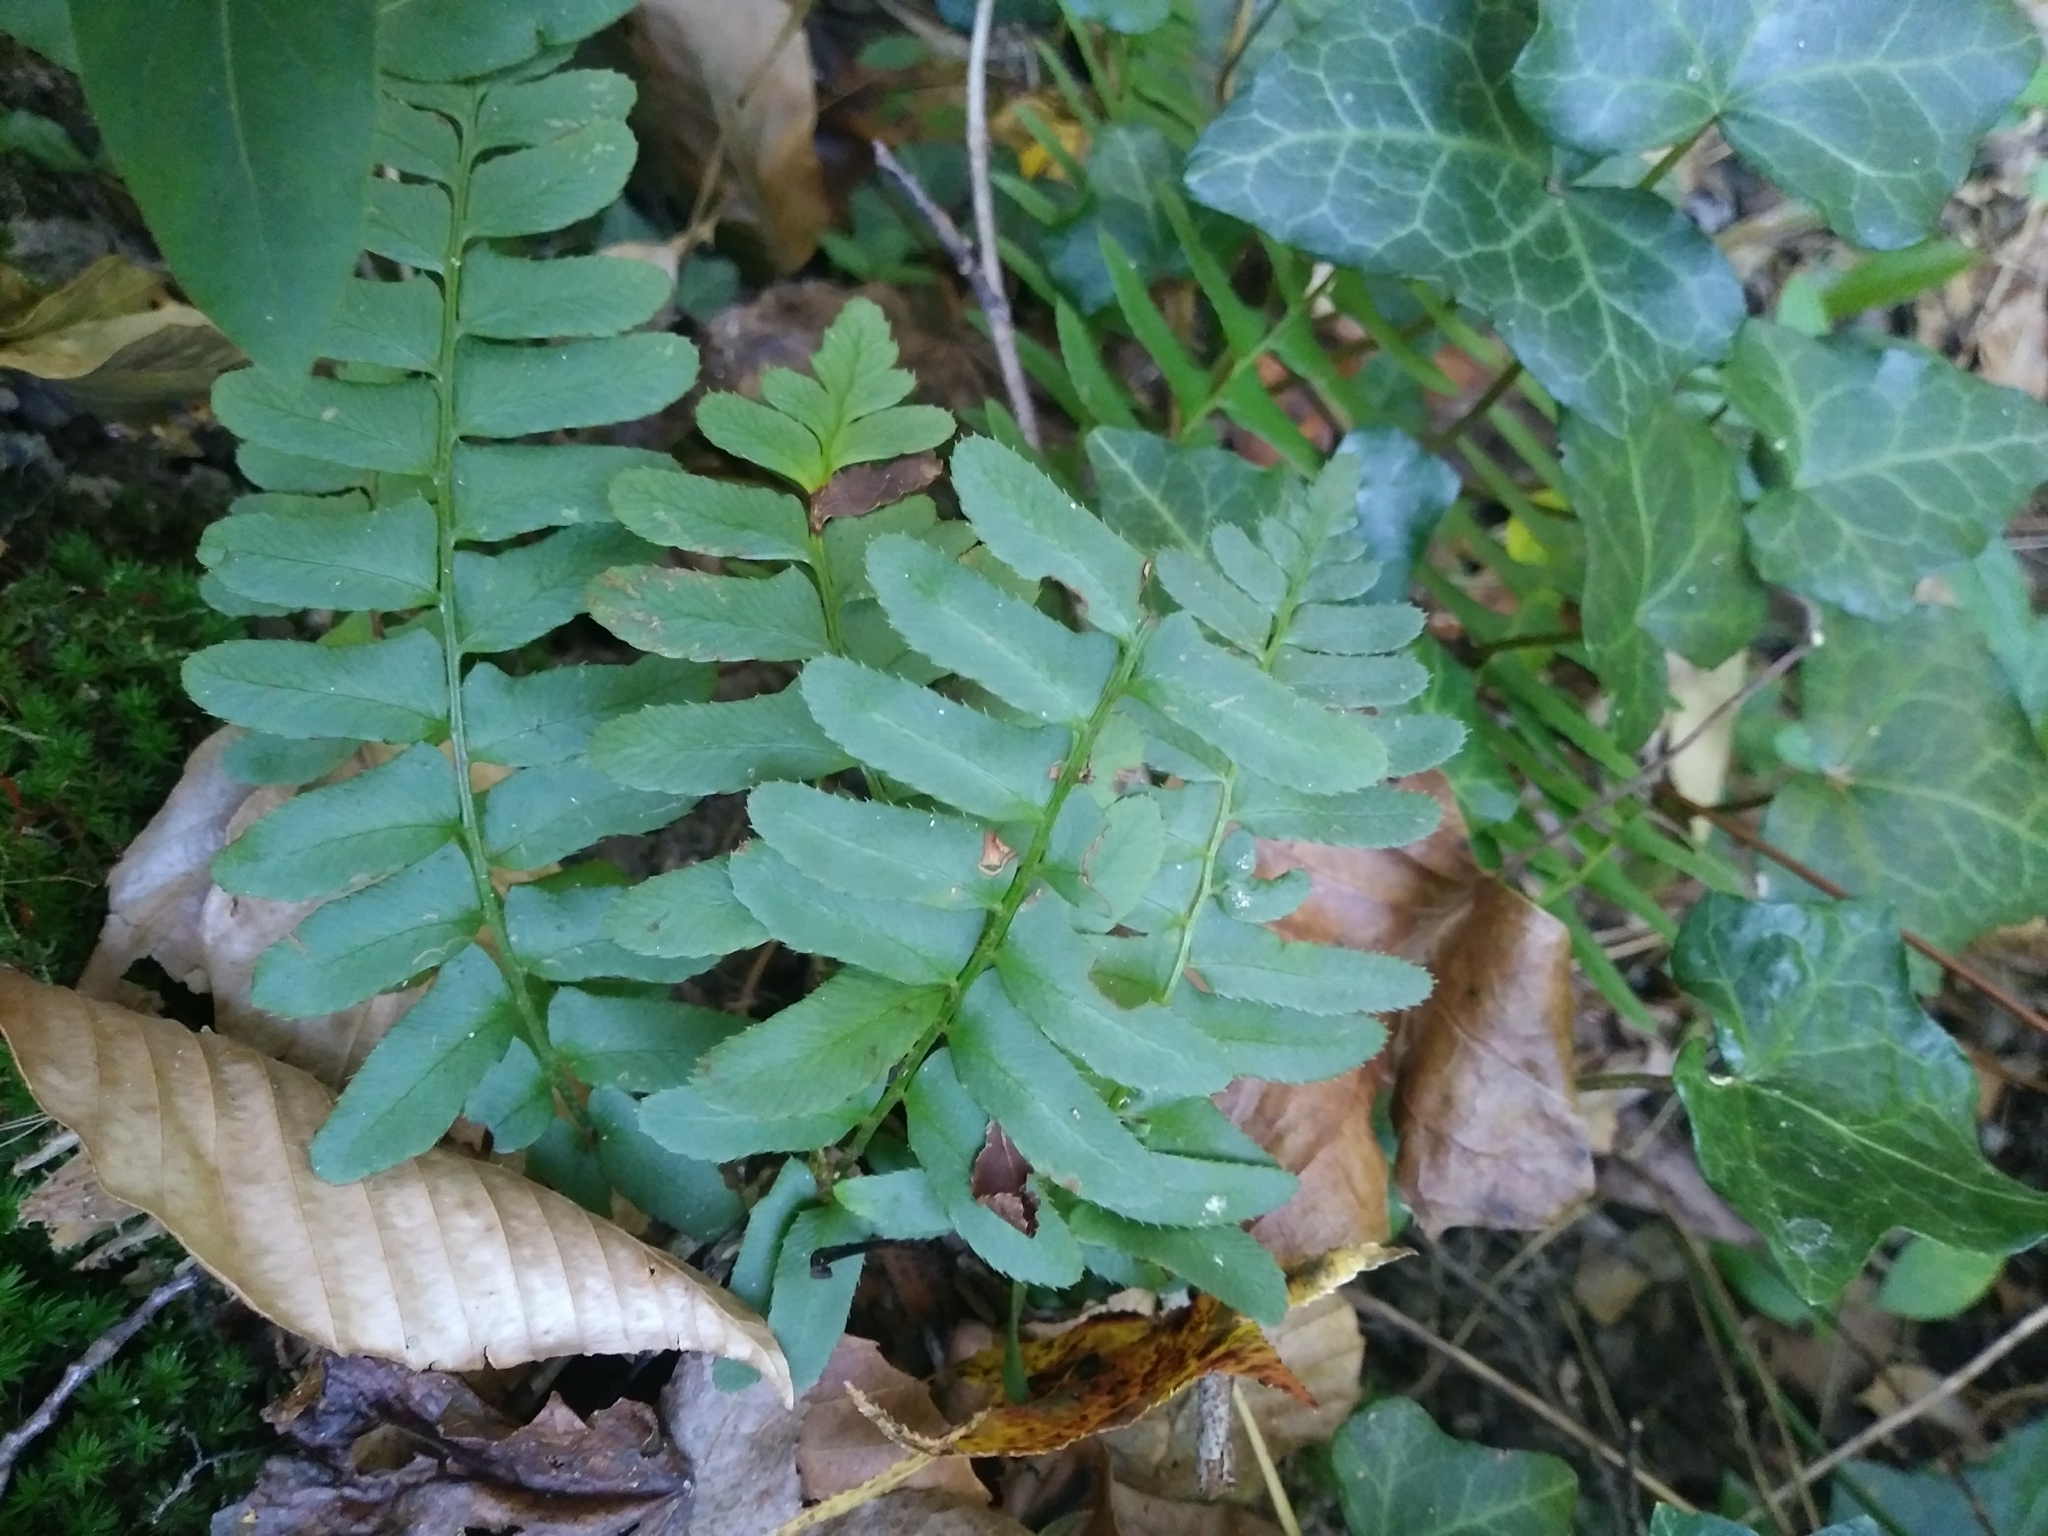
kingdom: Plantae
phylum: Tracheophyta
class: Polypodiopsida
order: Polypodiales
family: Dryopteridaceae
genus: Polystichum
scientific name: Polystichum acrostichoides
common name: Christmas fern
